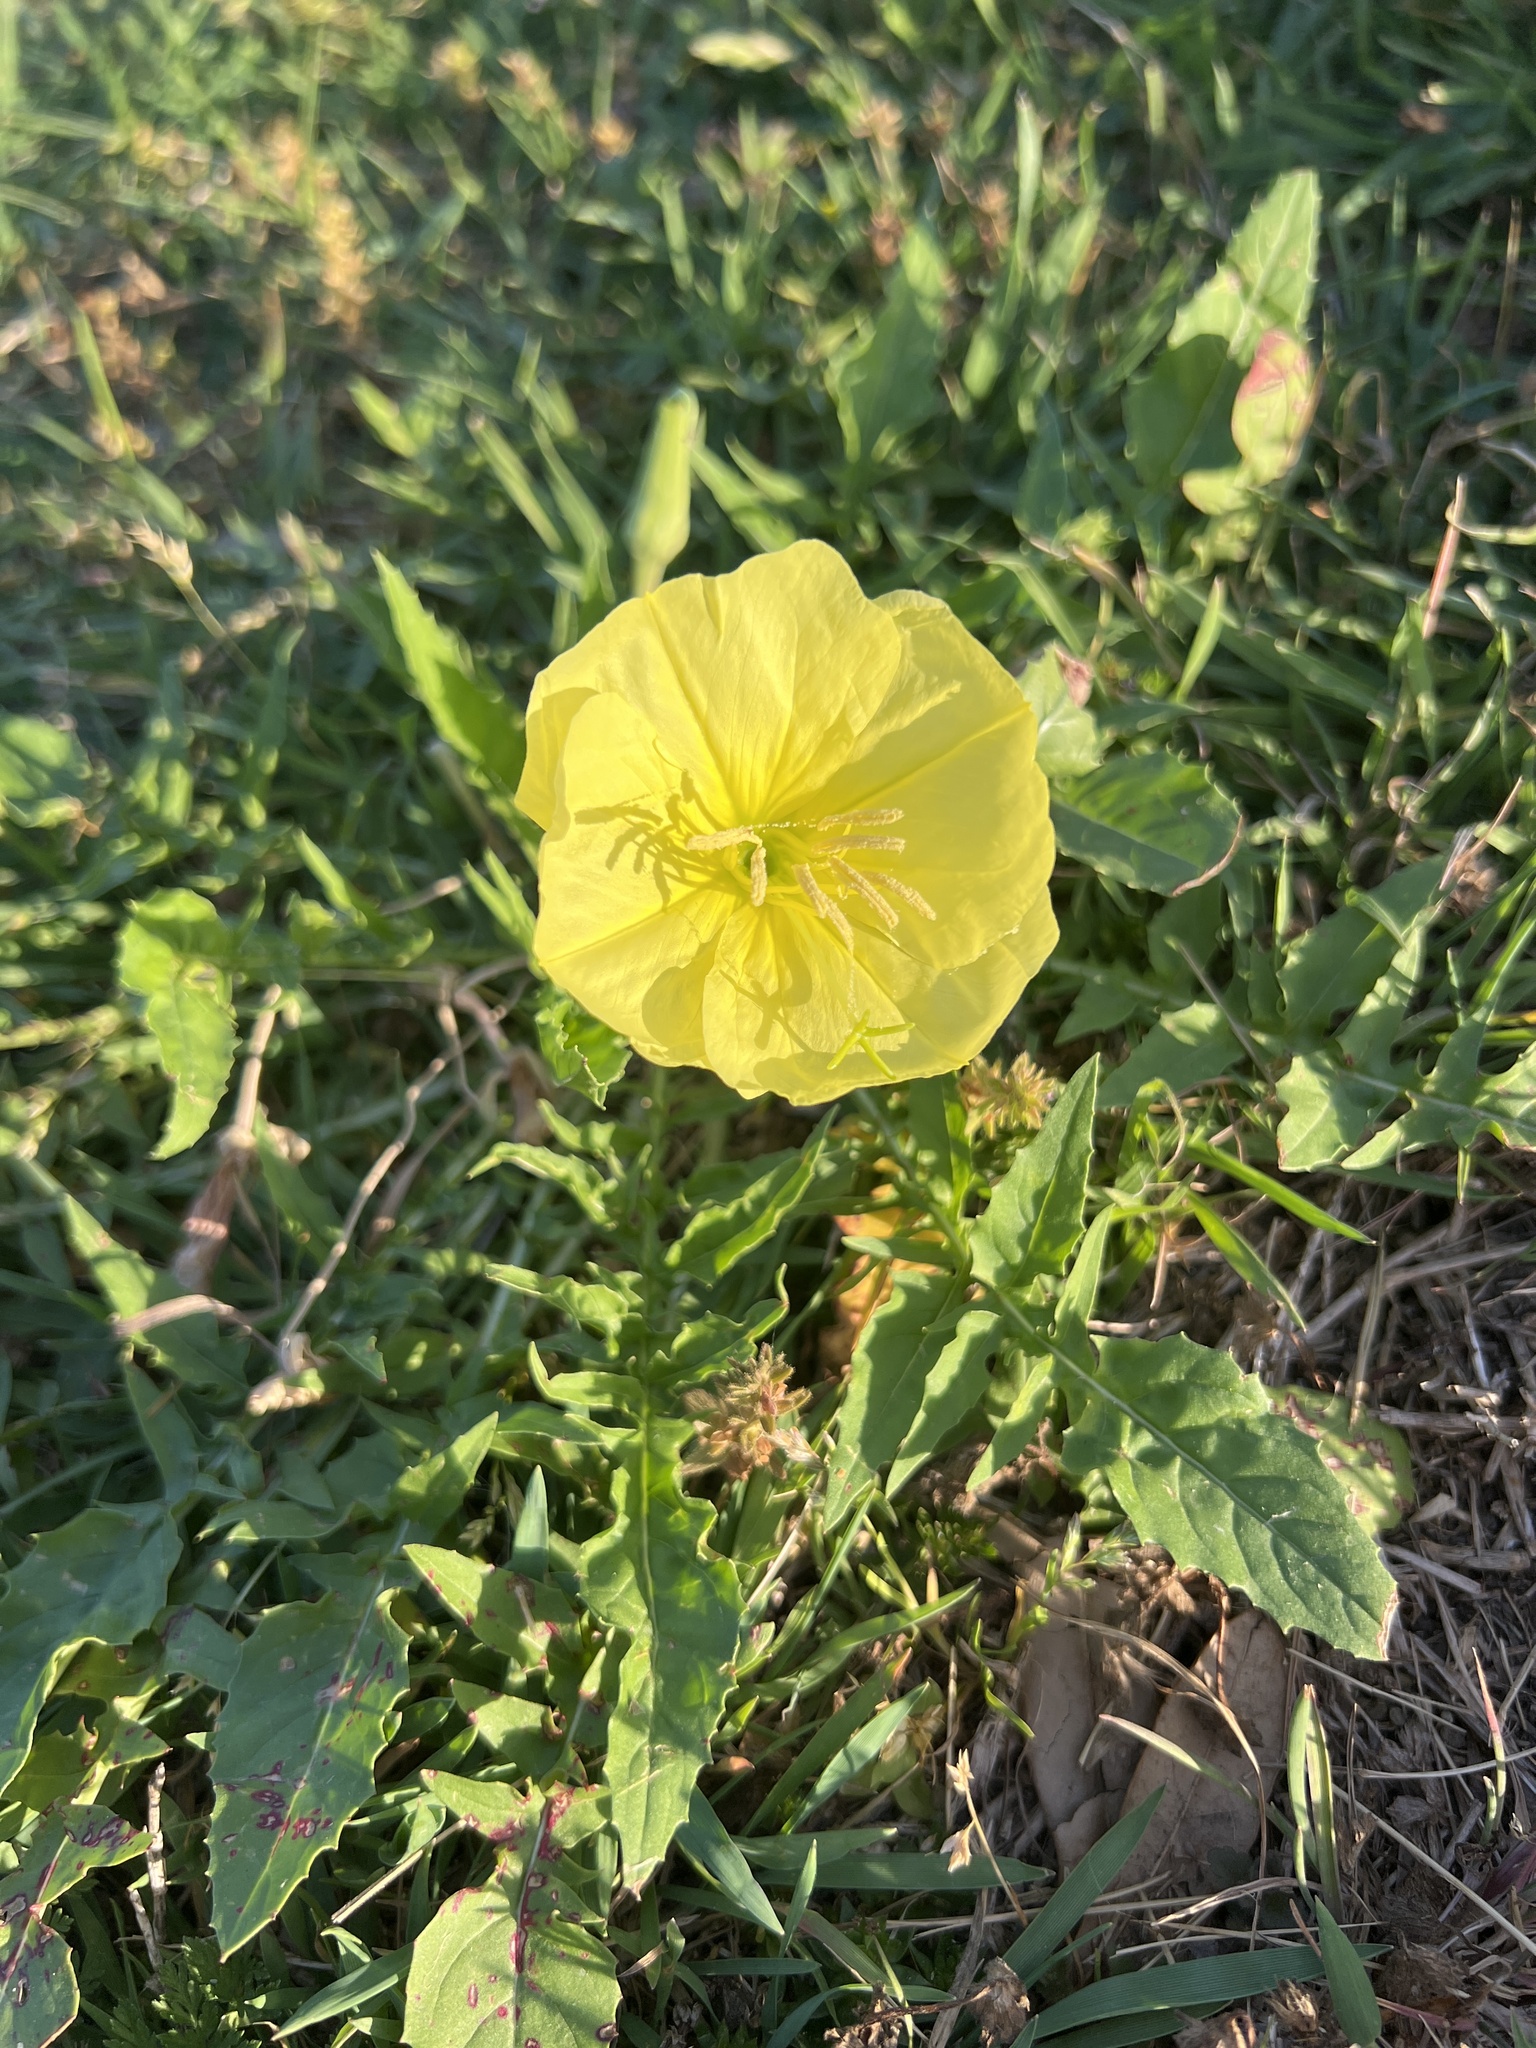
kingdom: Plantae
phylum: Tracheophyta
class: Magnoliopsida
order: Myrtales
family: Onagraceae
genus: Oenothera
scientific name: Oenothera triloba
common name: Sessile evening-primrose
